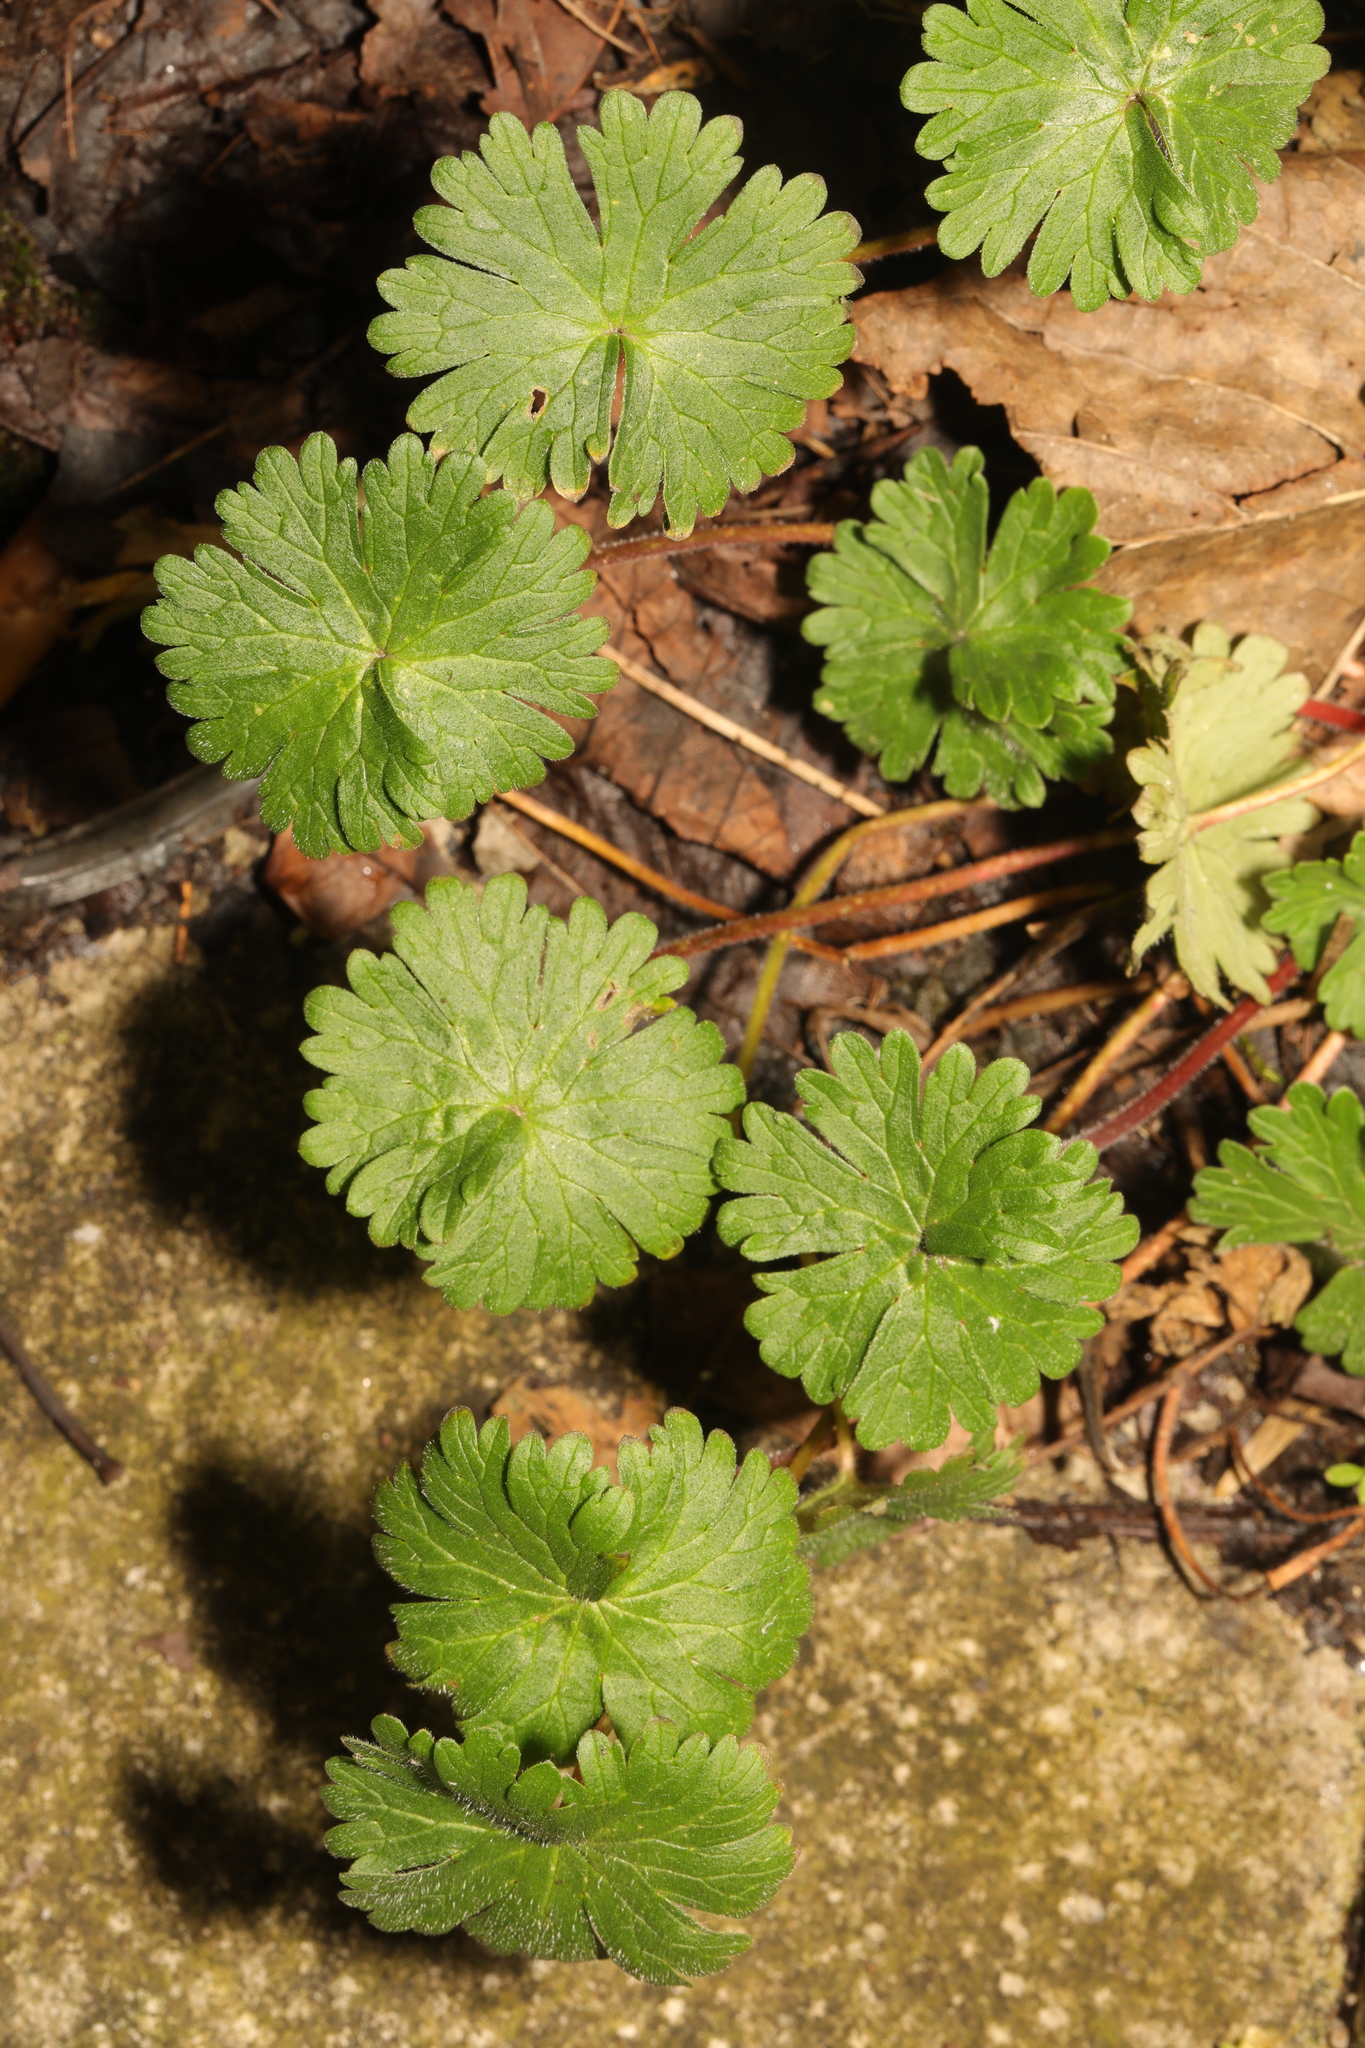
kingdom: Plantae
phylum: Tracheophyta
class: Magnoliopsida
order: Geraniales
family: Geraniaceae
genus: Geranium
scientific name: Geranium molle
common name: Dove's-foot crane's-bill
